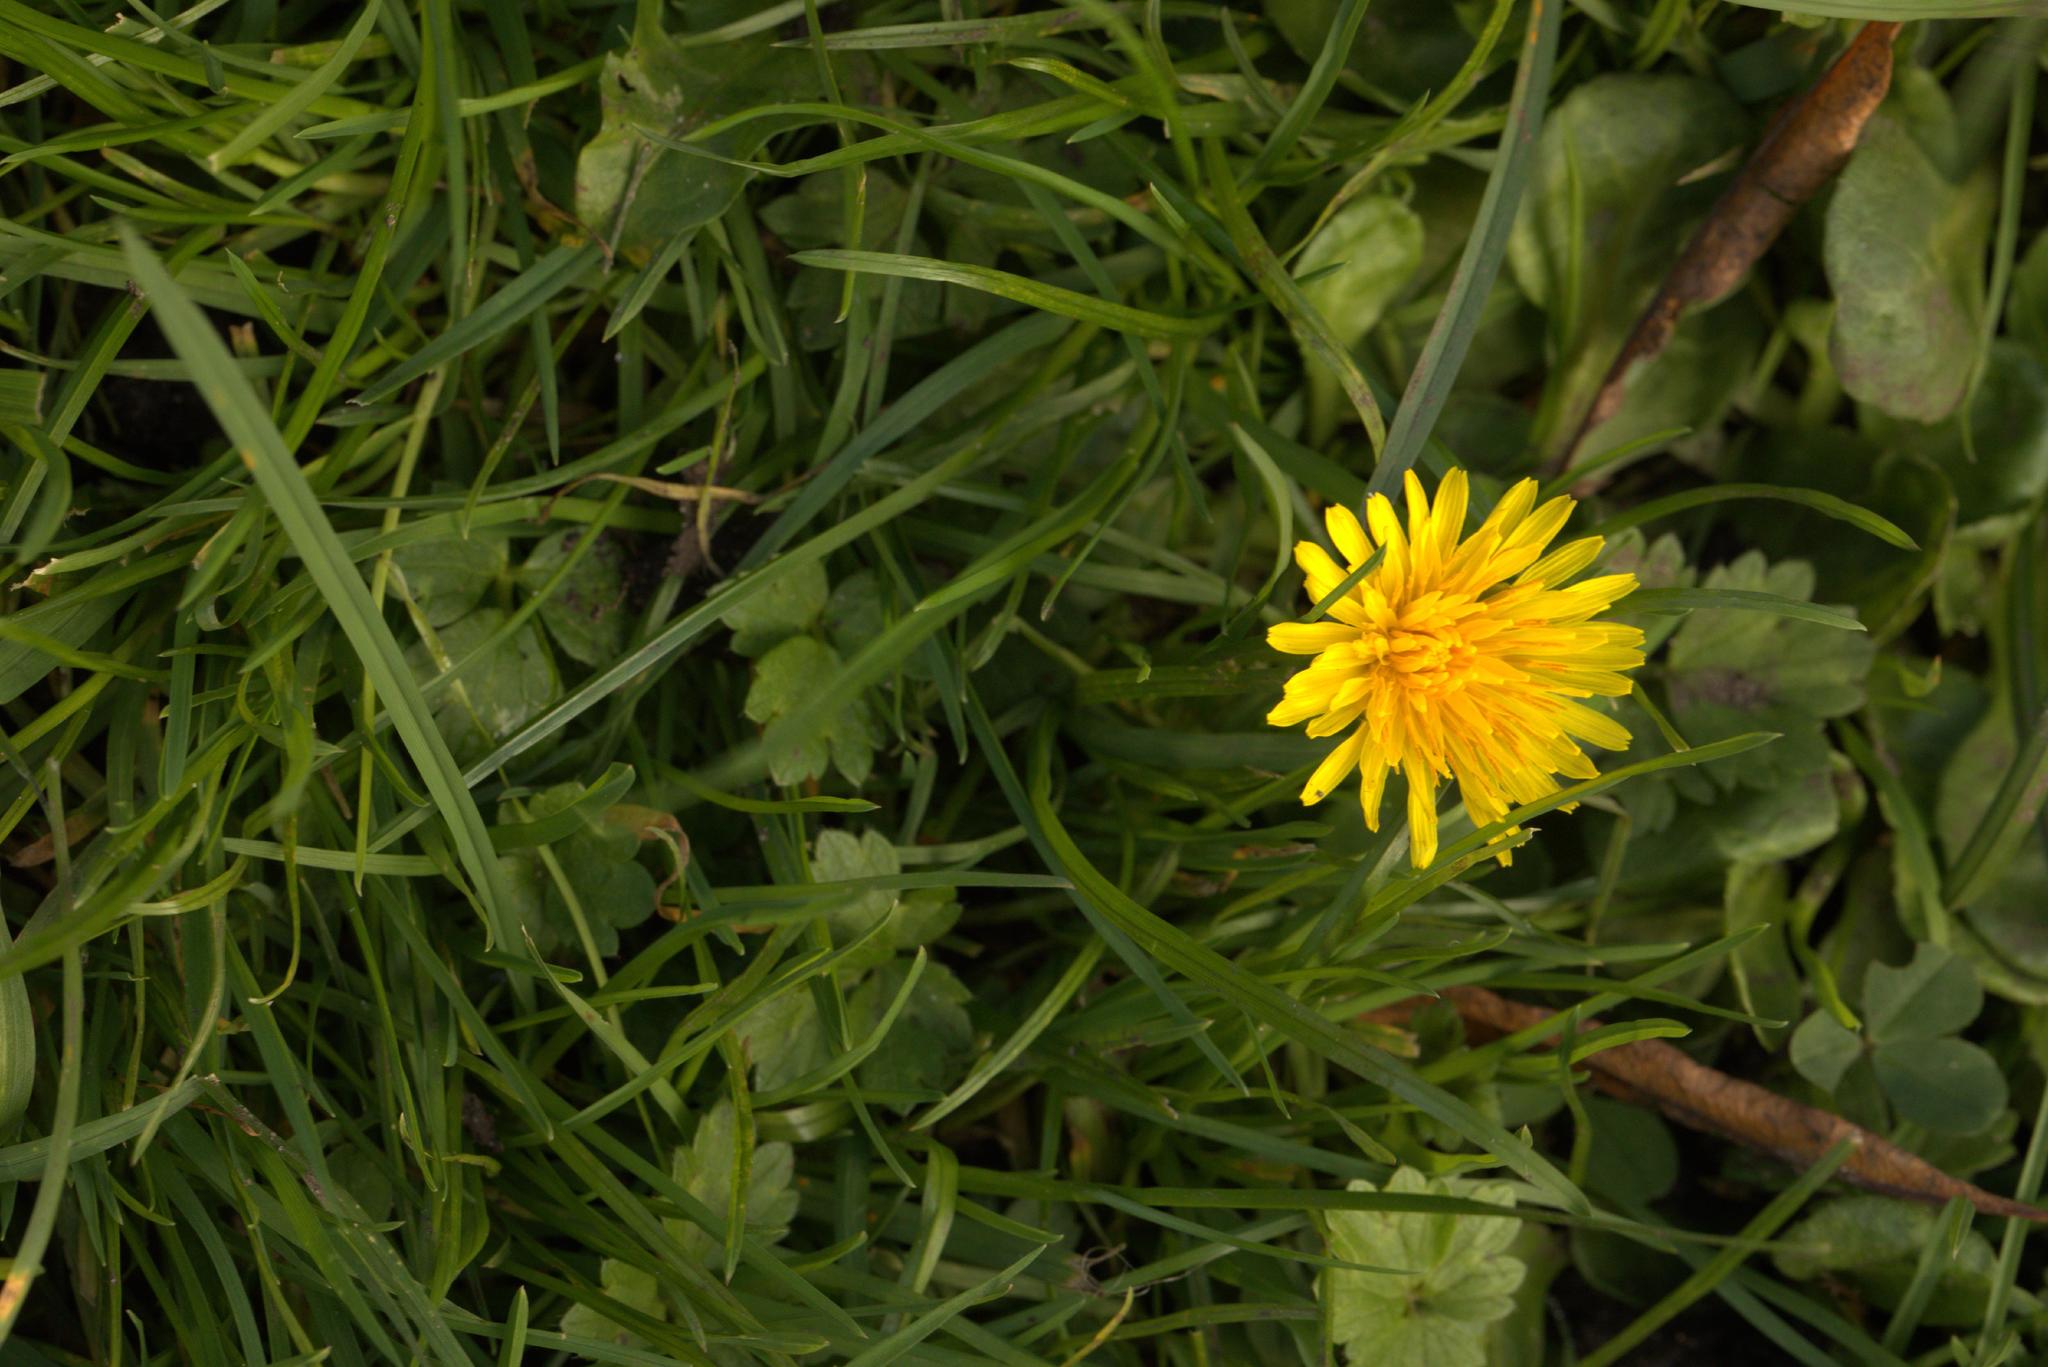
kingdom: Plantae
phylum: Tracheophyta
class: Magnoliopsida
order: Asterales
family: Asteraceae
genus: Taraxacum
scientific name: Taraxacum officinale
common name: Common dandelion
